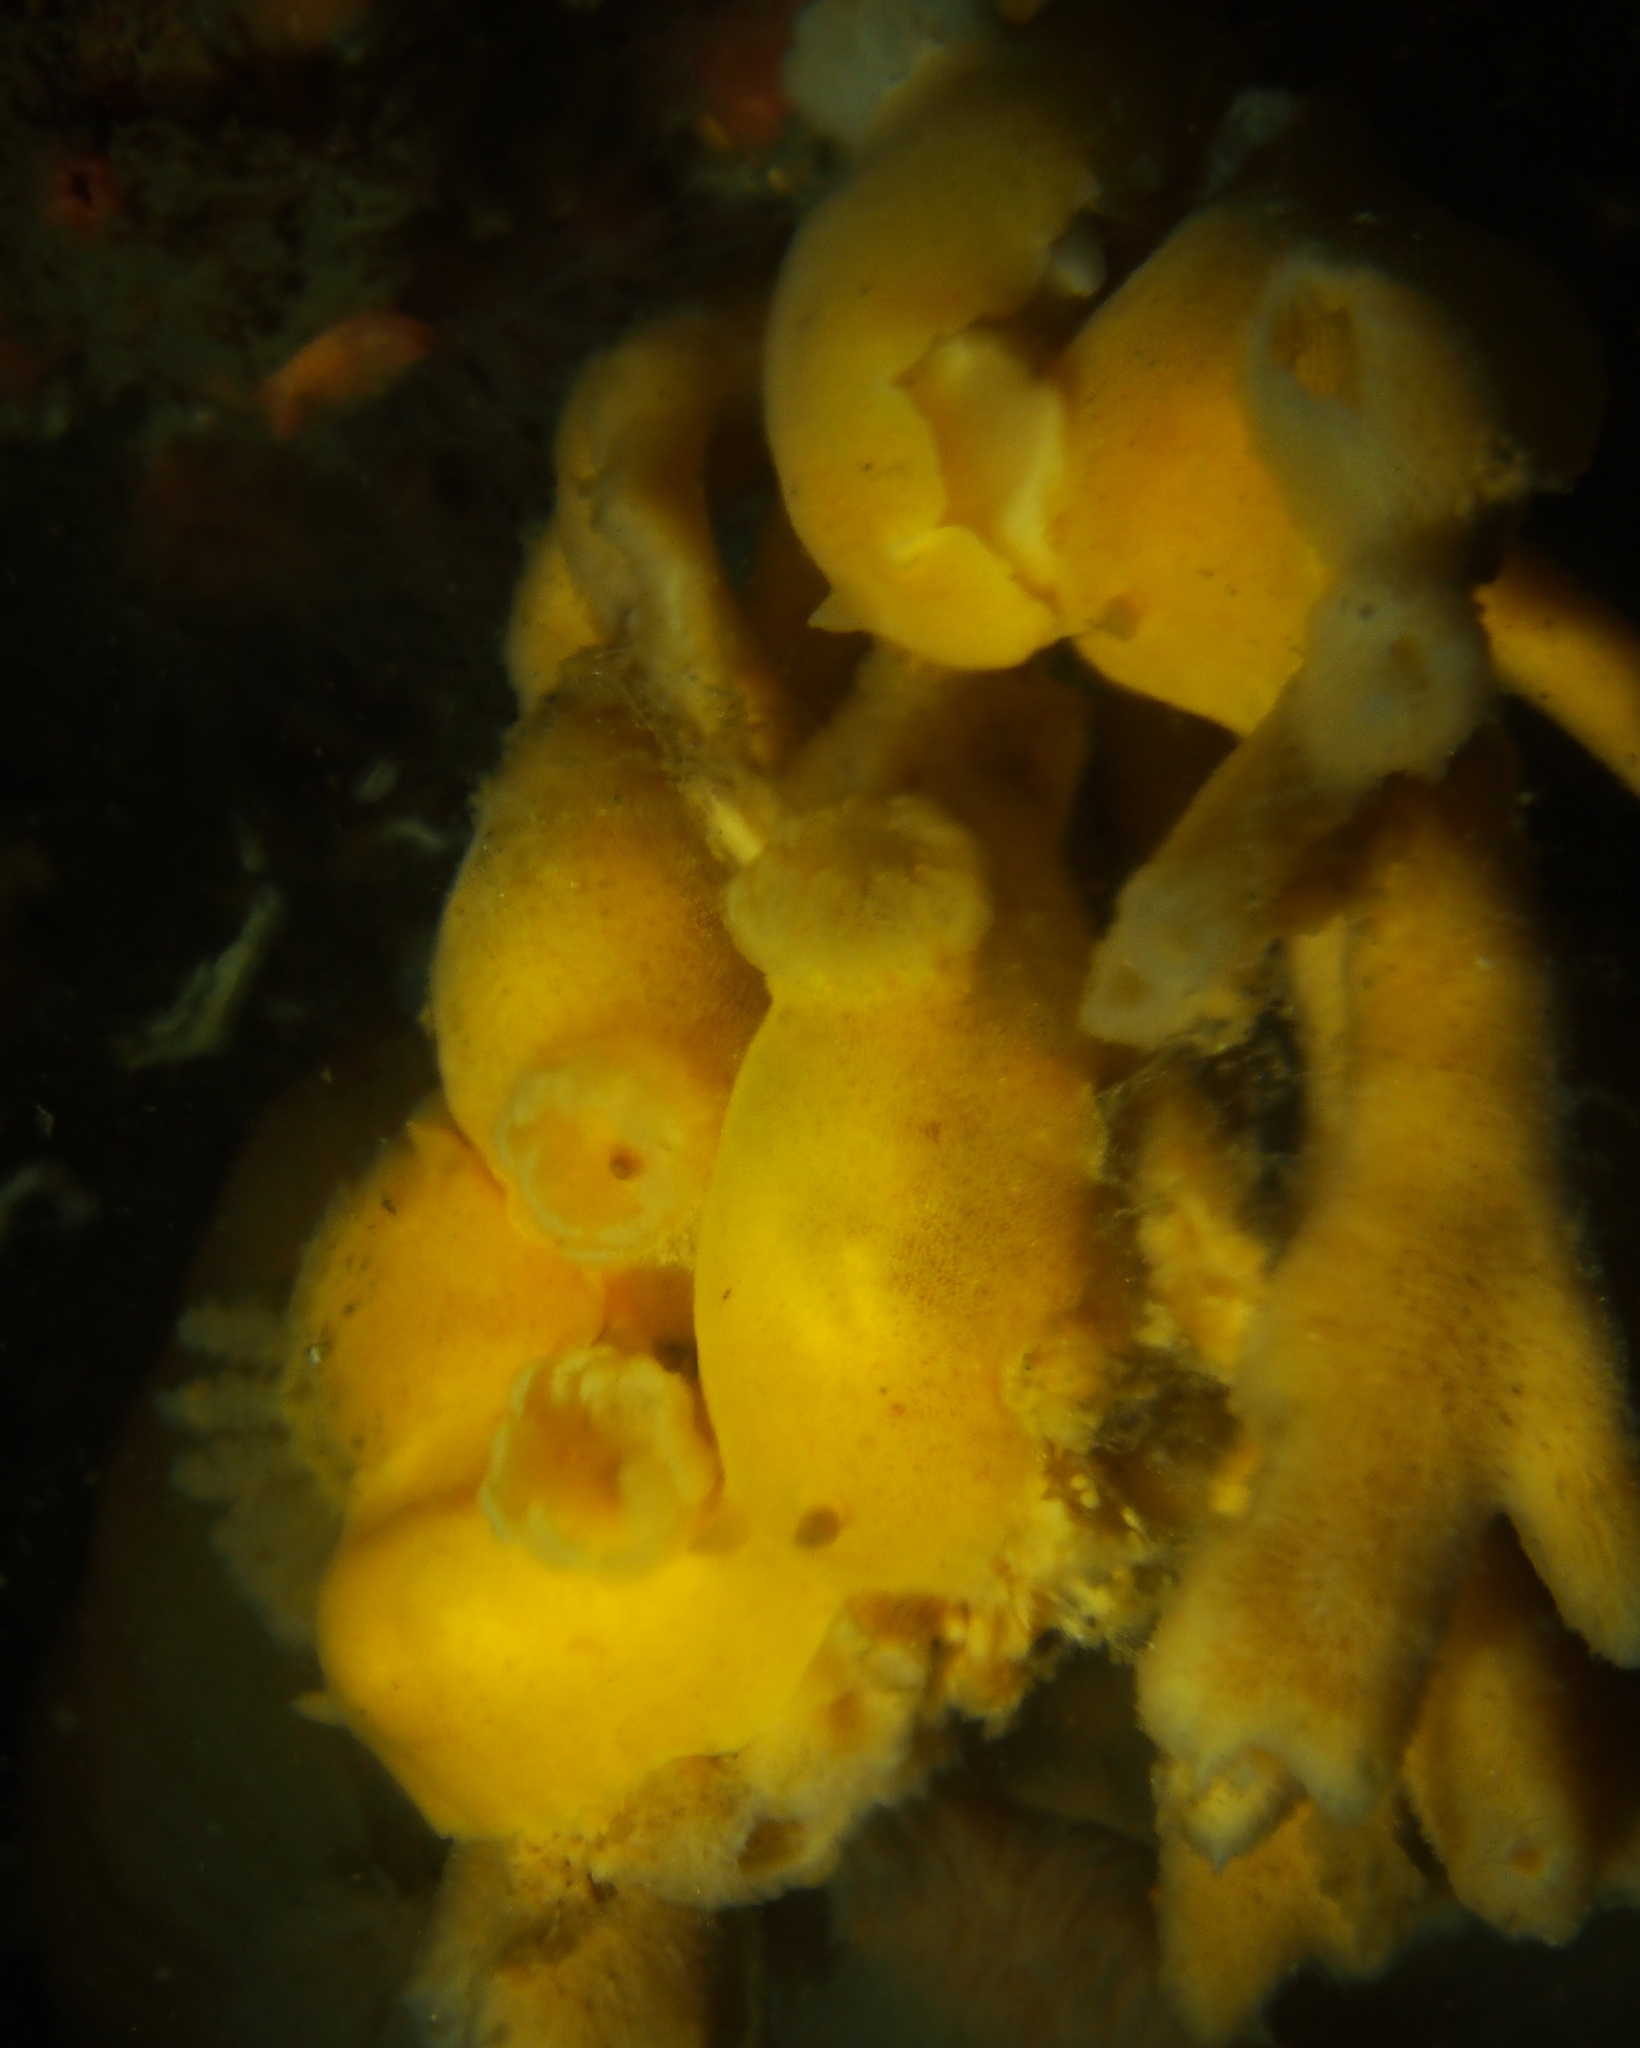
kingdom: Animalia
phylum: Mollusca
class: Gastropoda
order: Nudibranchia
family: Discodorididae
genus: Jorunna
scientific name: Jorunna tomentosa
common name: Grey sea slug
